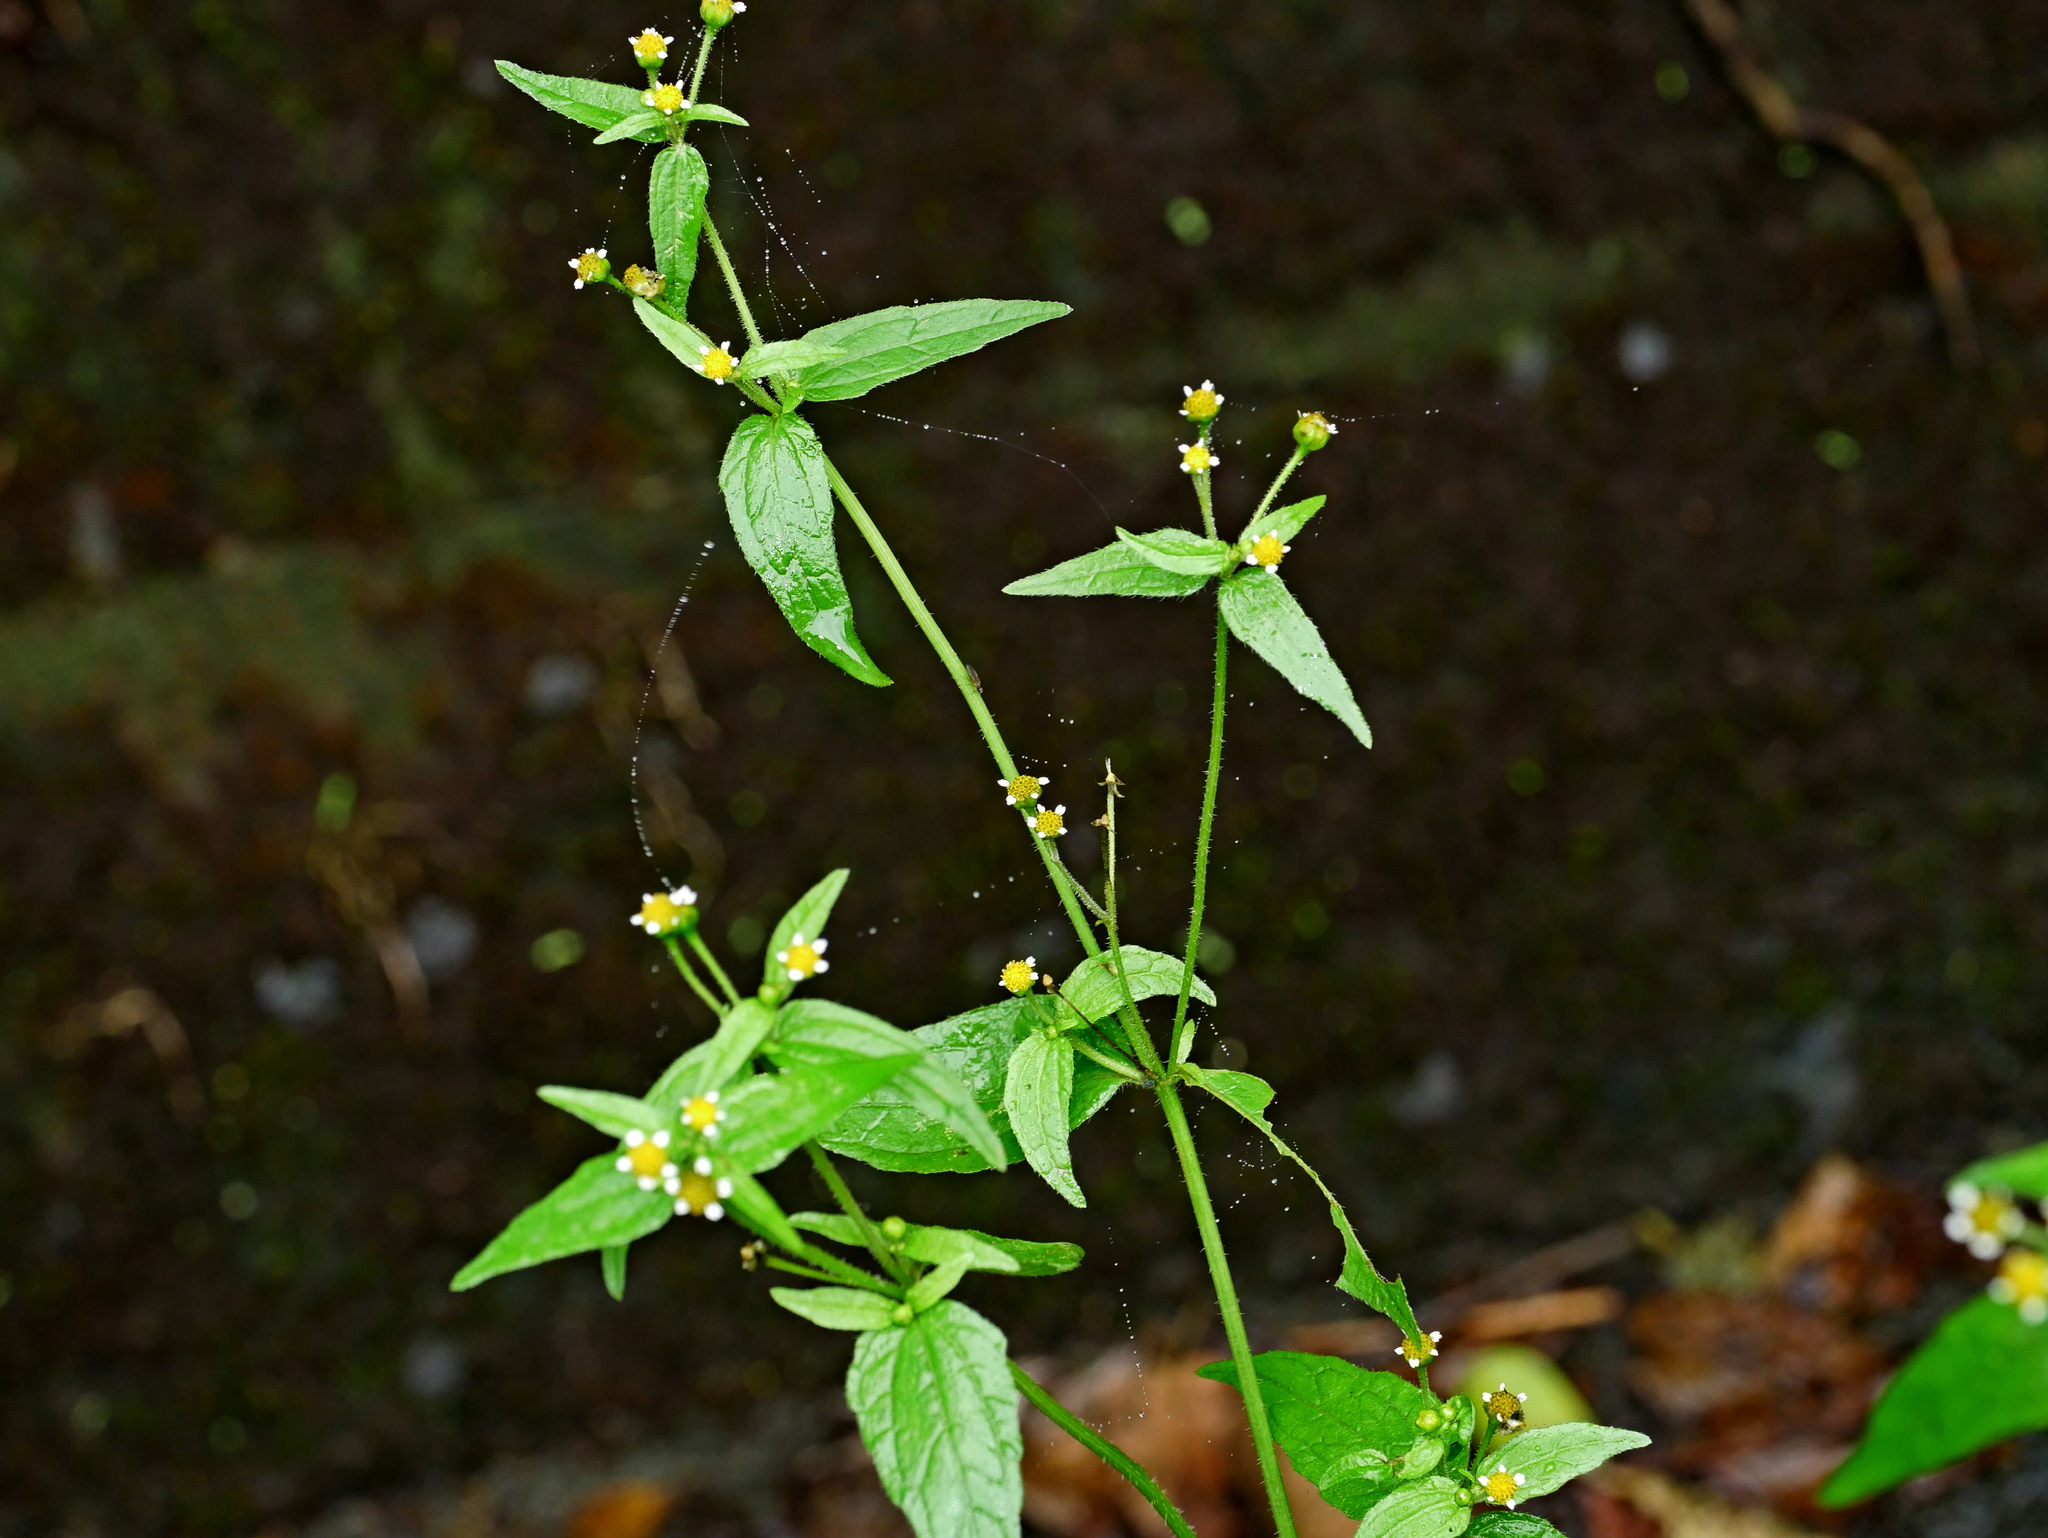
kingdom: Plantae
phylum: Tracheophyta
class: Magnoliopsida
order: Asterales
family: Asteraceae
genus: Galinsoga
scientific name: Galinsoga quadriradiata
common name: Shaggy soldier
